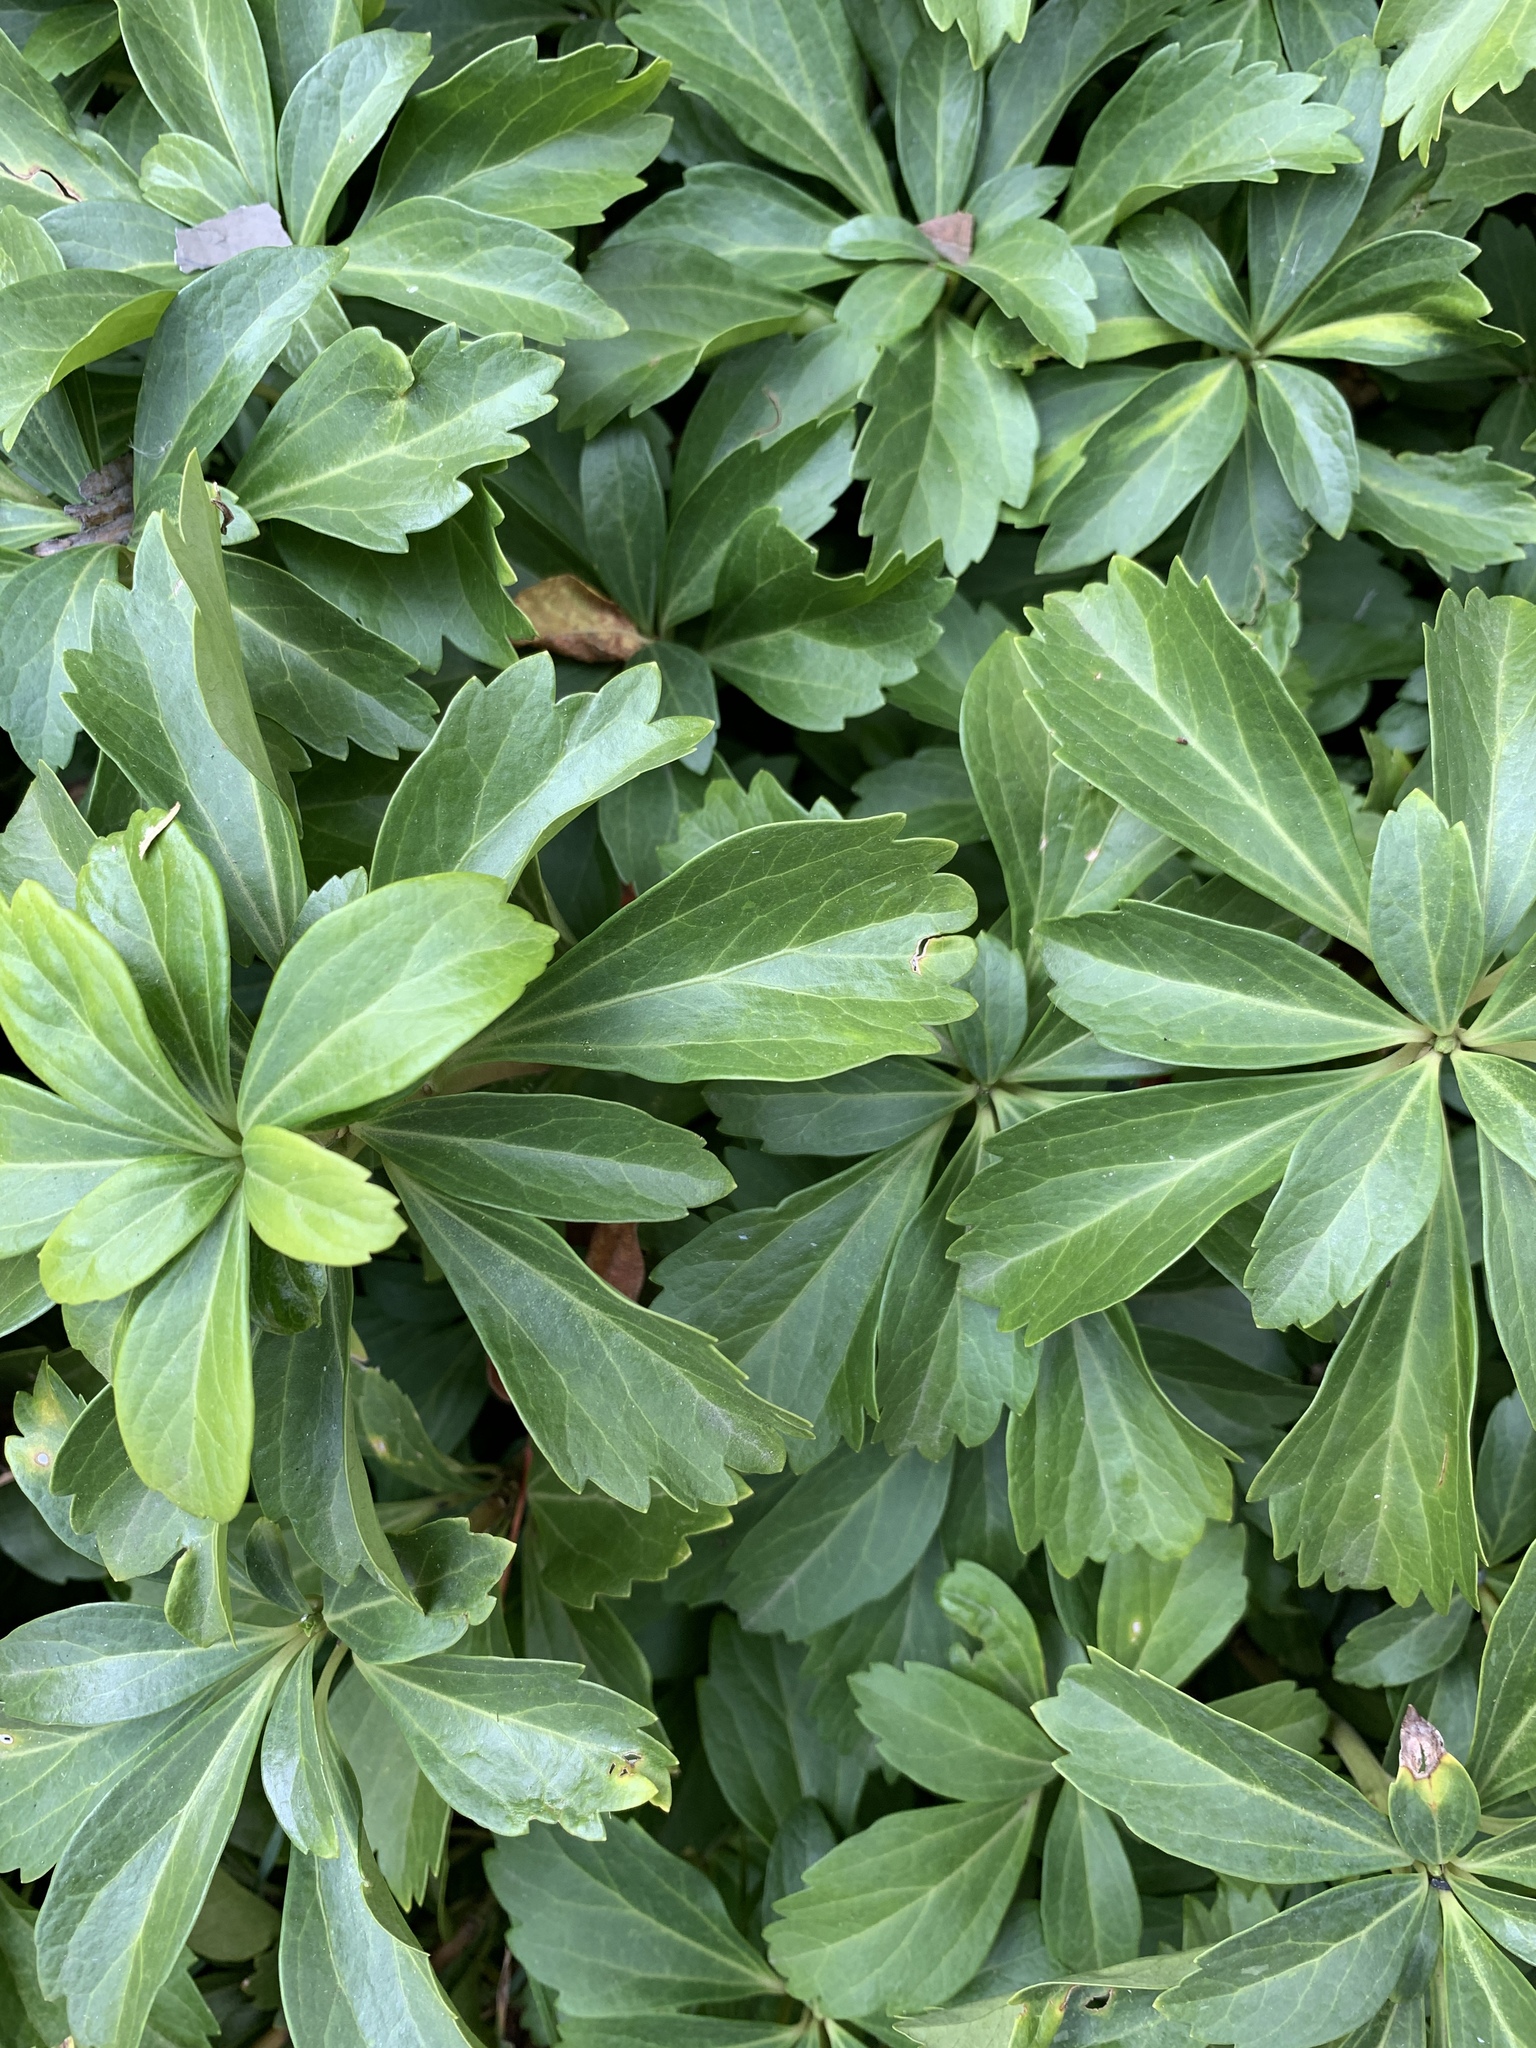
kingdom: Plantae
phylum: Tracheophyta
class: Magnoliopsida
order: Buxales
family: Buxaceae
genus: Pachysandra
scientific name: Pachysandra terminalis
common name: Japanese pachysandra
